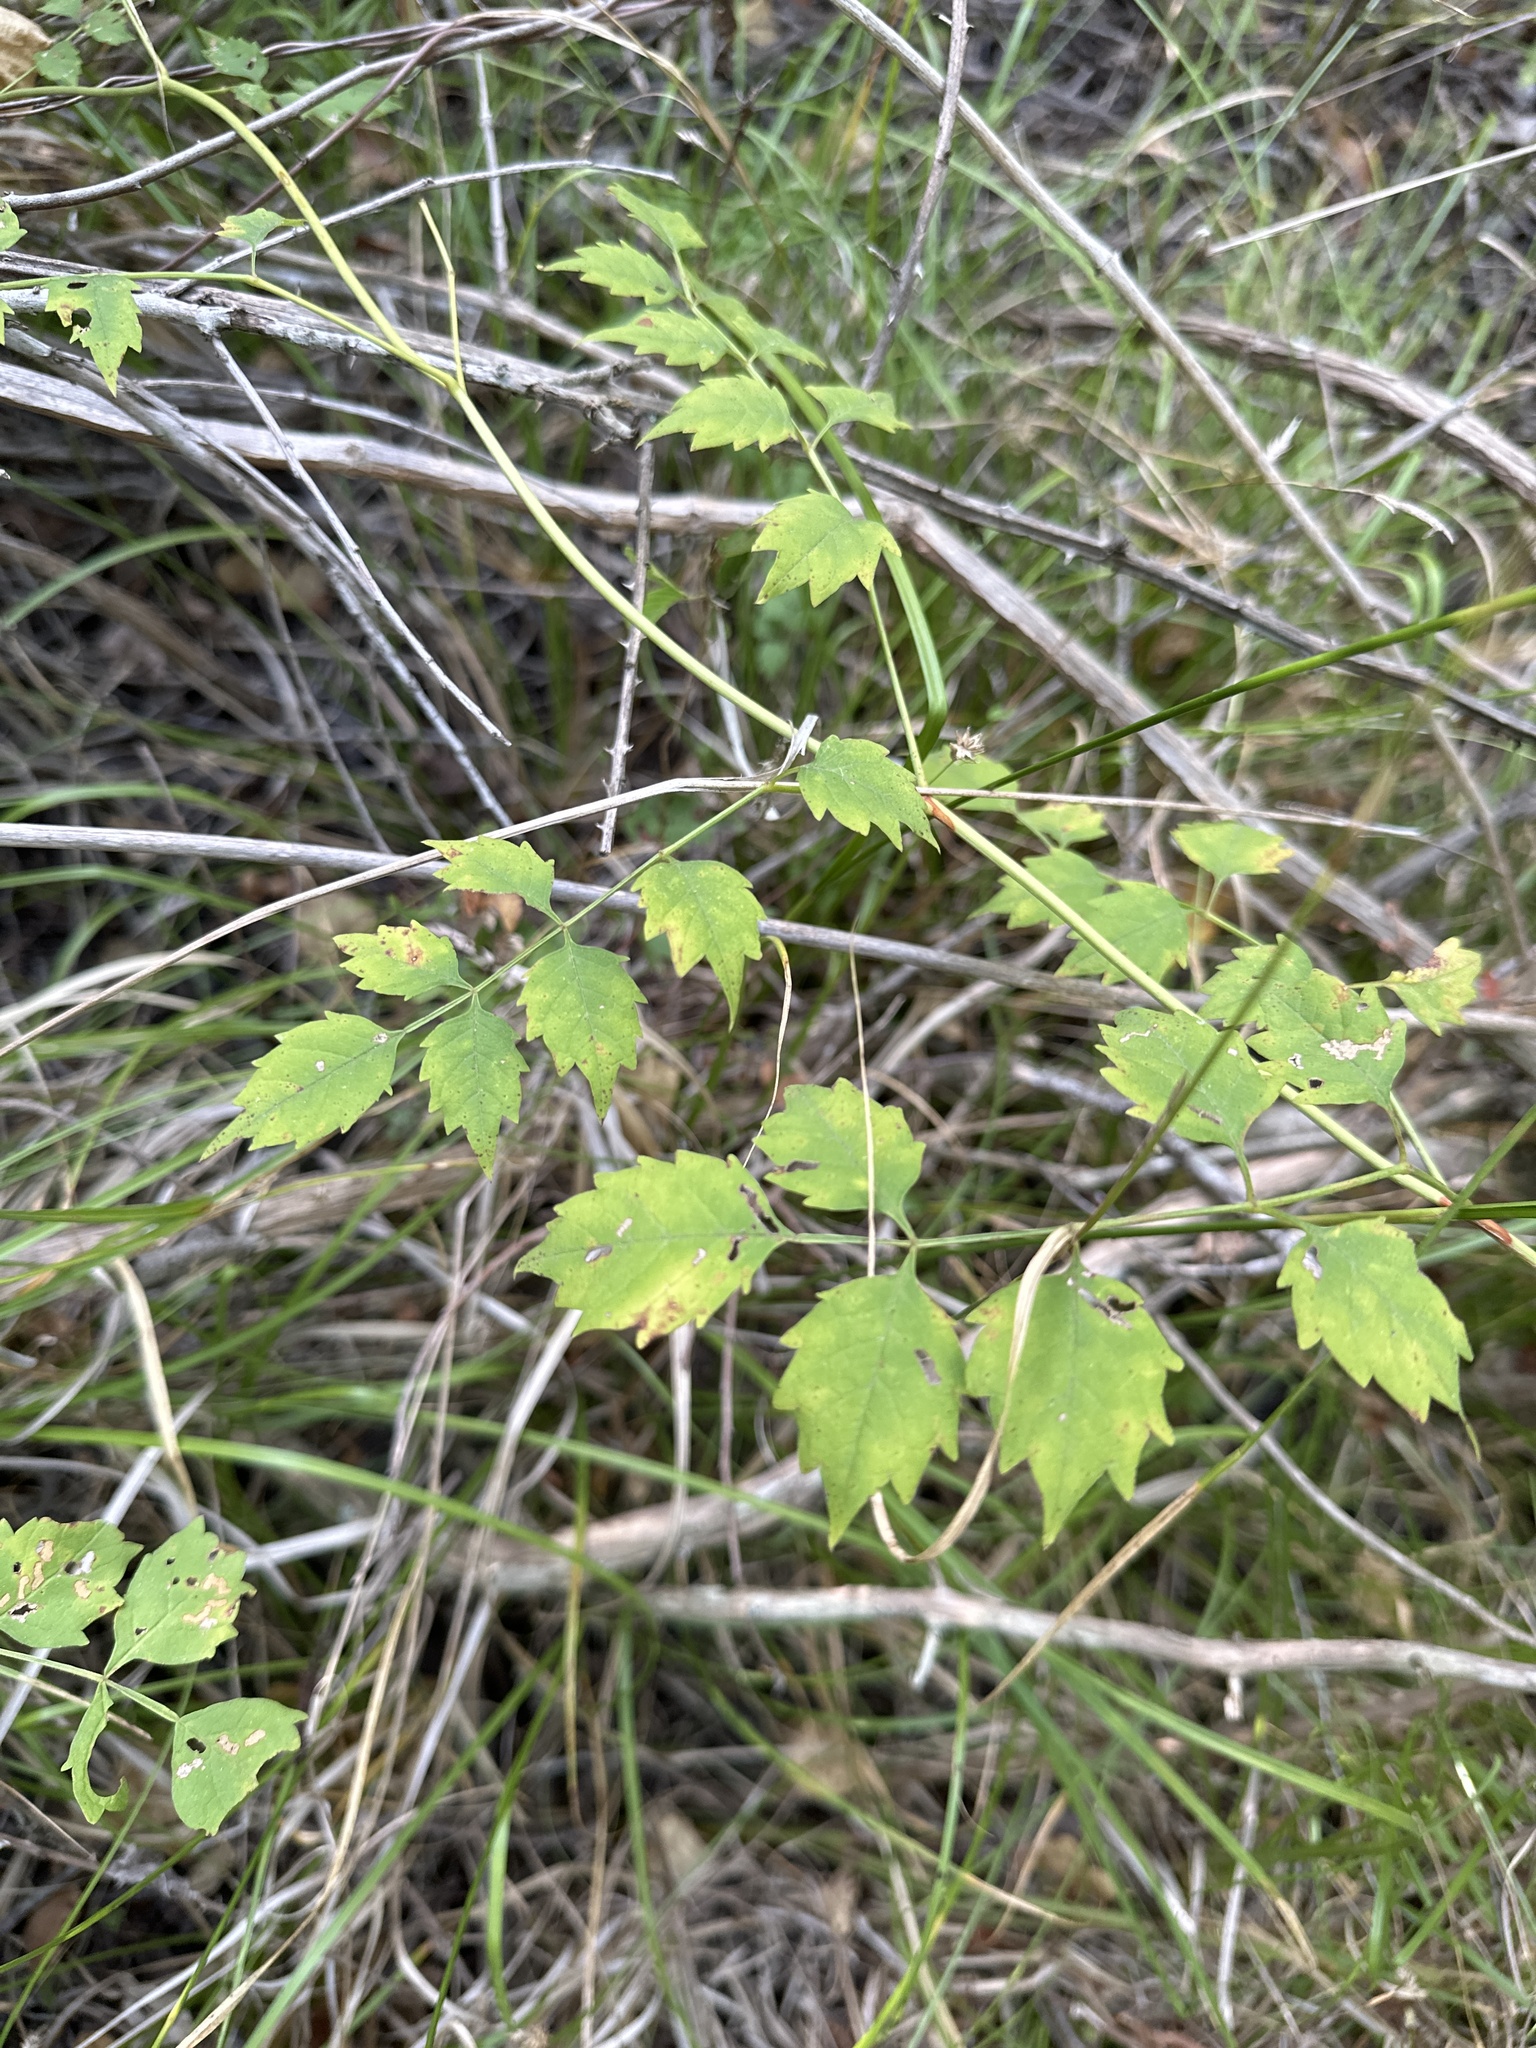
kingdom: Plantae
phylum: Tracheophyta
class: Magnoliopsida
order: Lamiales
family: Bignoniaceae
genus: Campsis
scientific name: Campsis radicans
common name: Trumpet-creeper
